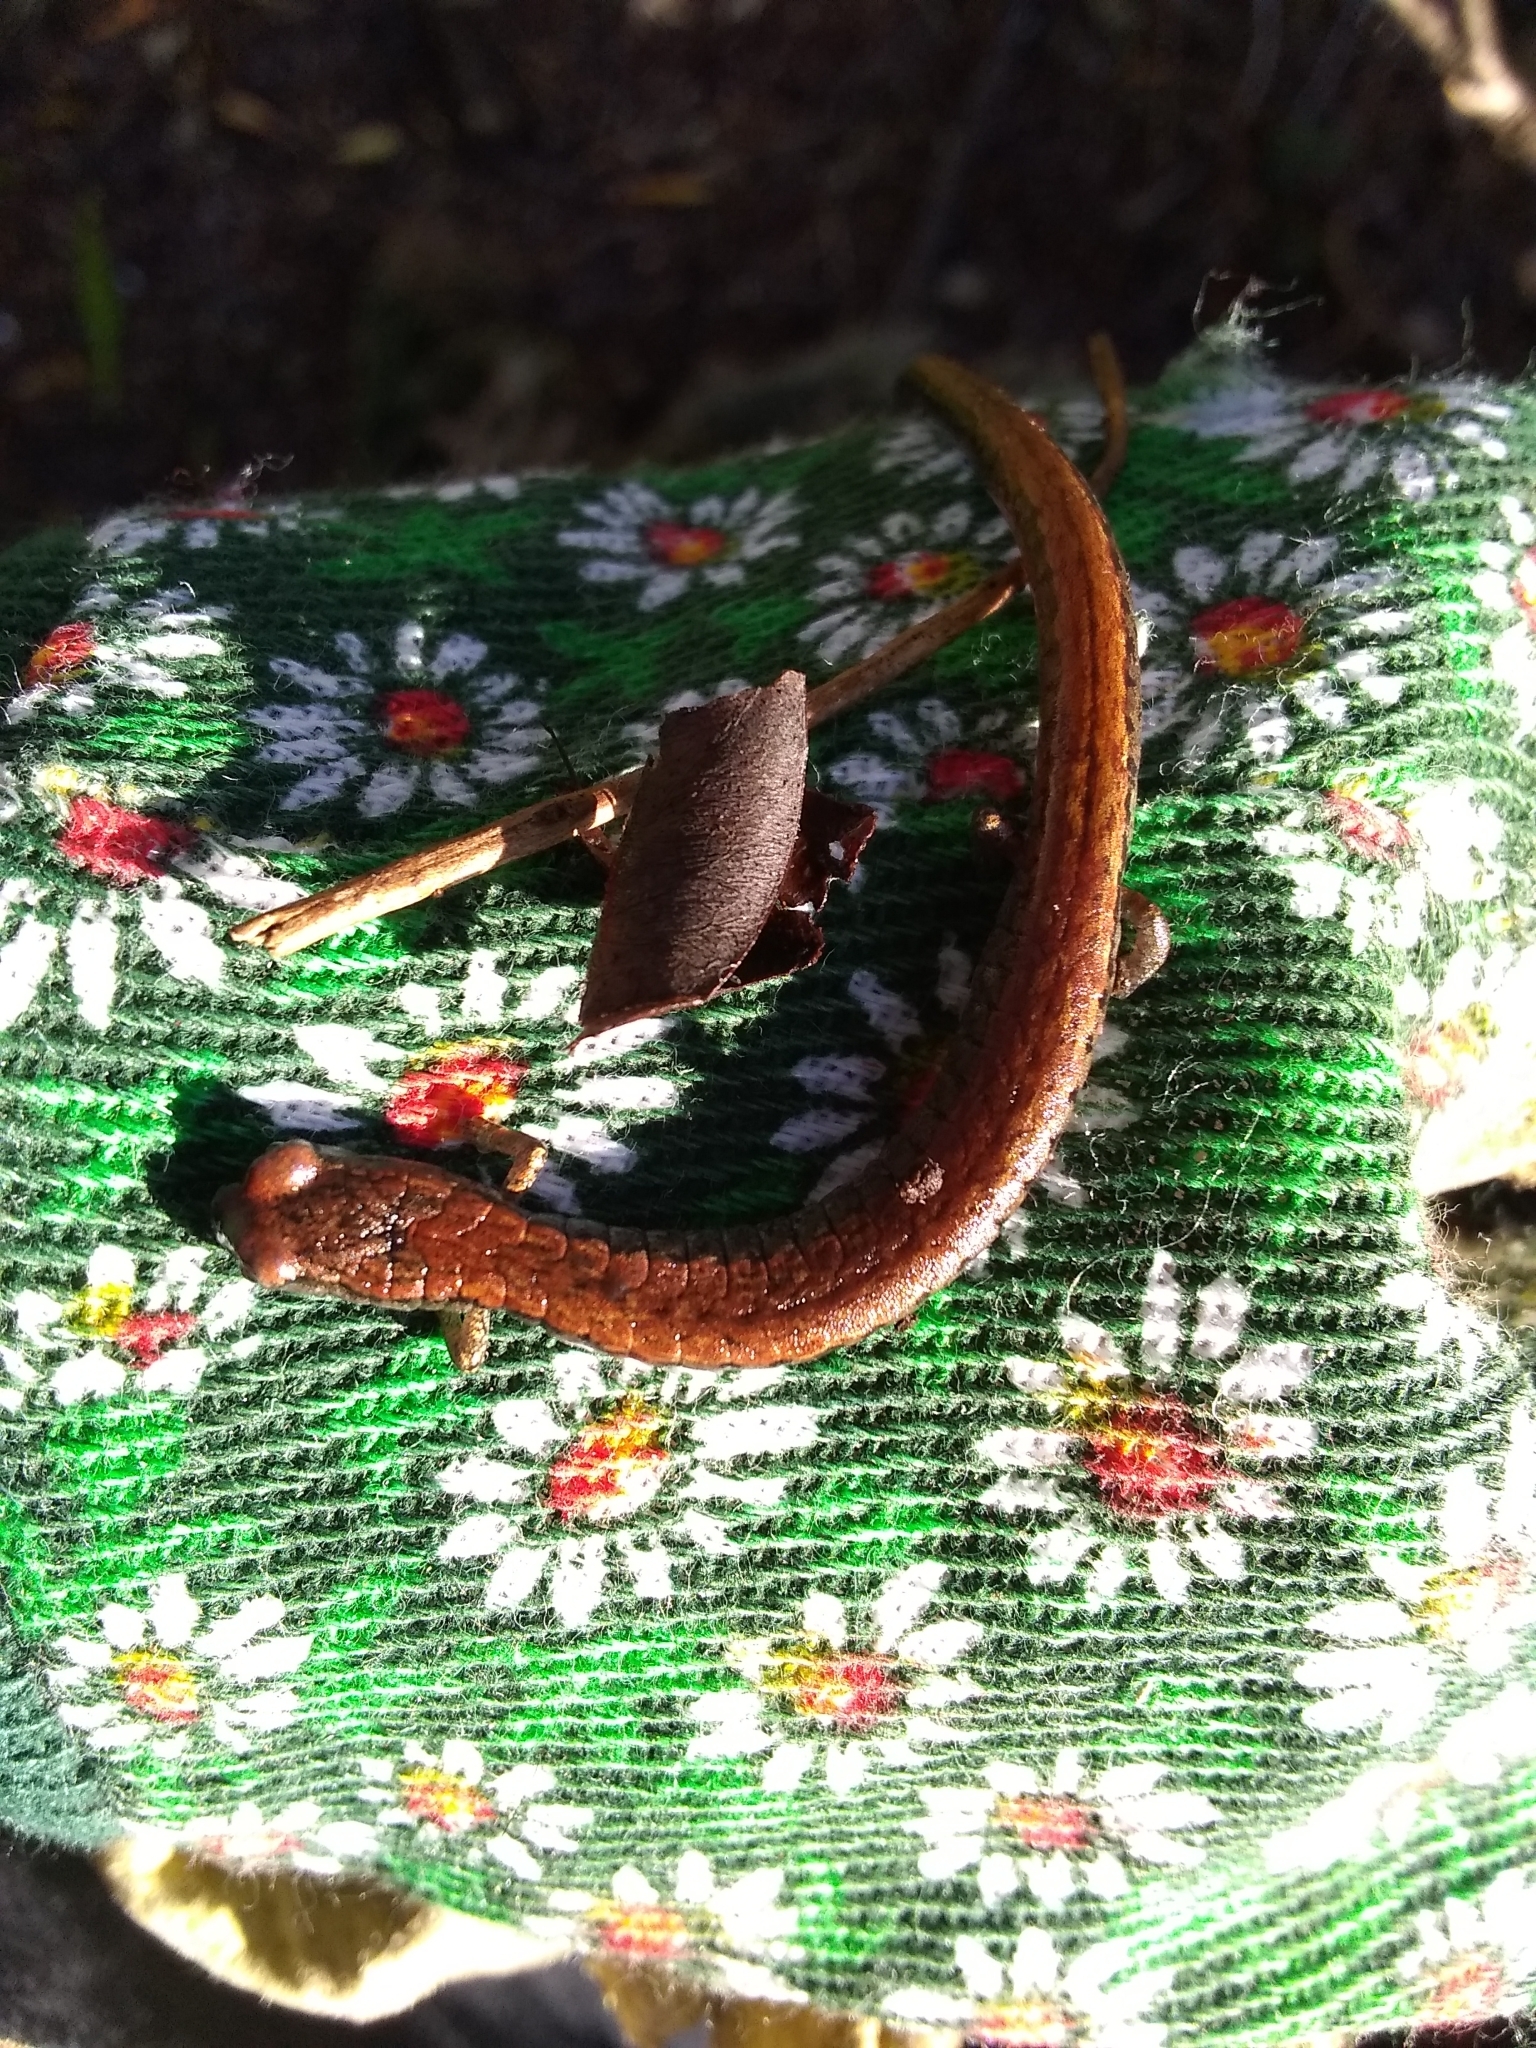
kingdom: Animalia
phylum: Chordata
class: Amphibia
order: Caudata
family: Plethodontidae
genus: Batrachoseps
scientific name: Batrachoseps attenuatus
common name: California slender salamander
